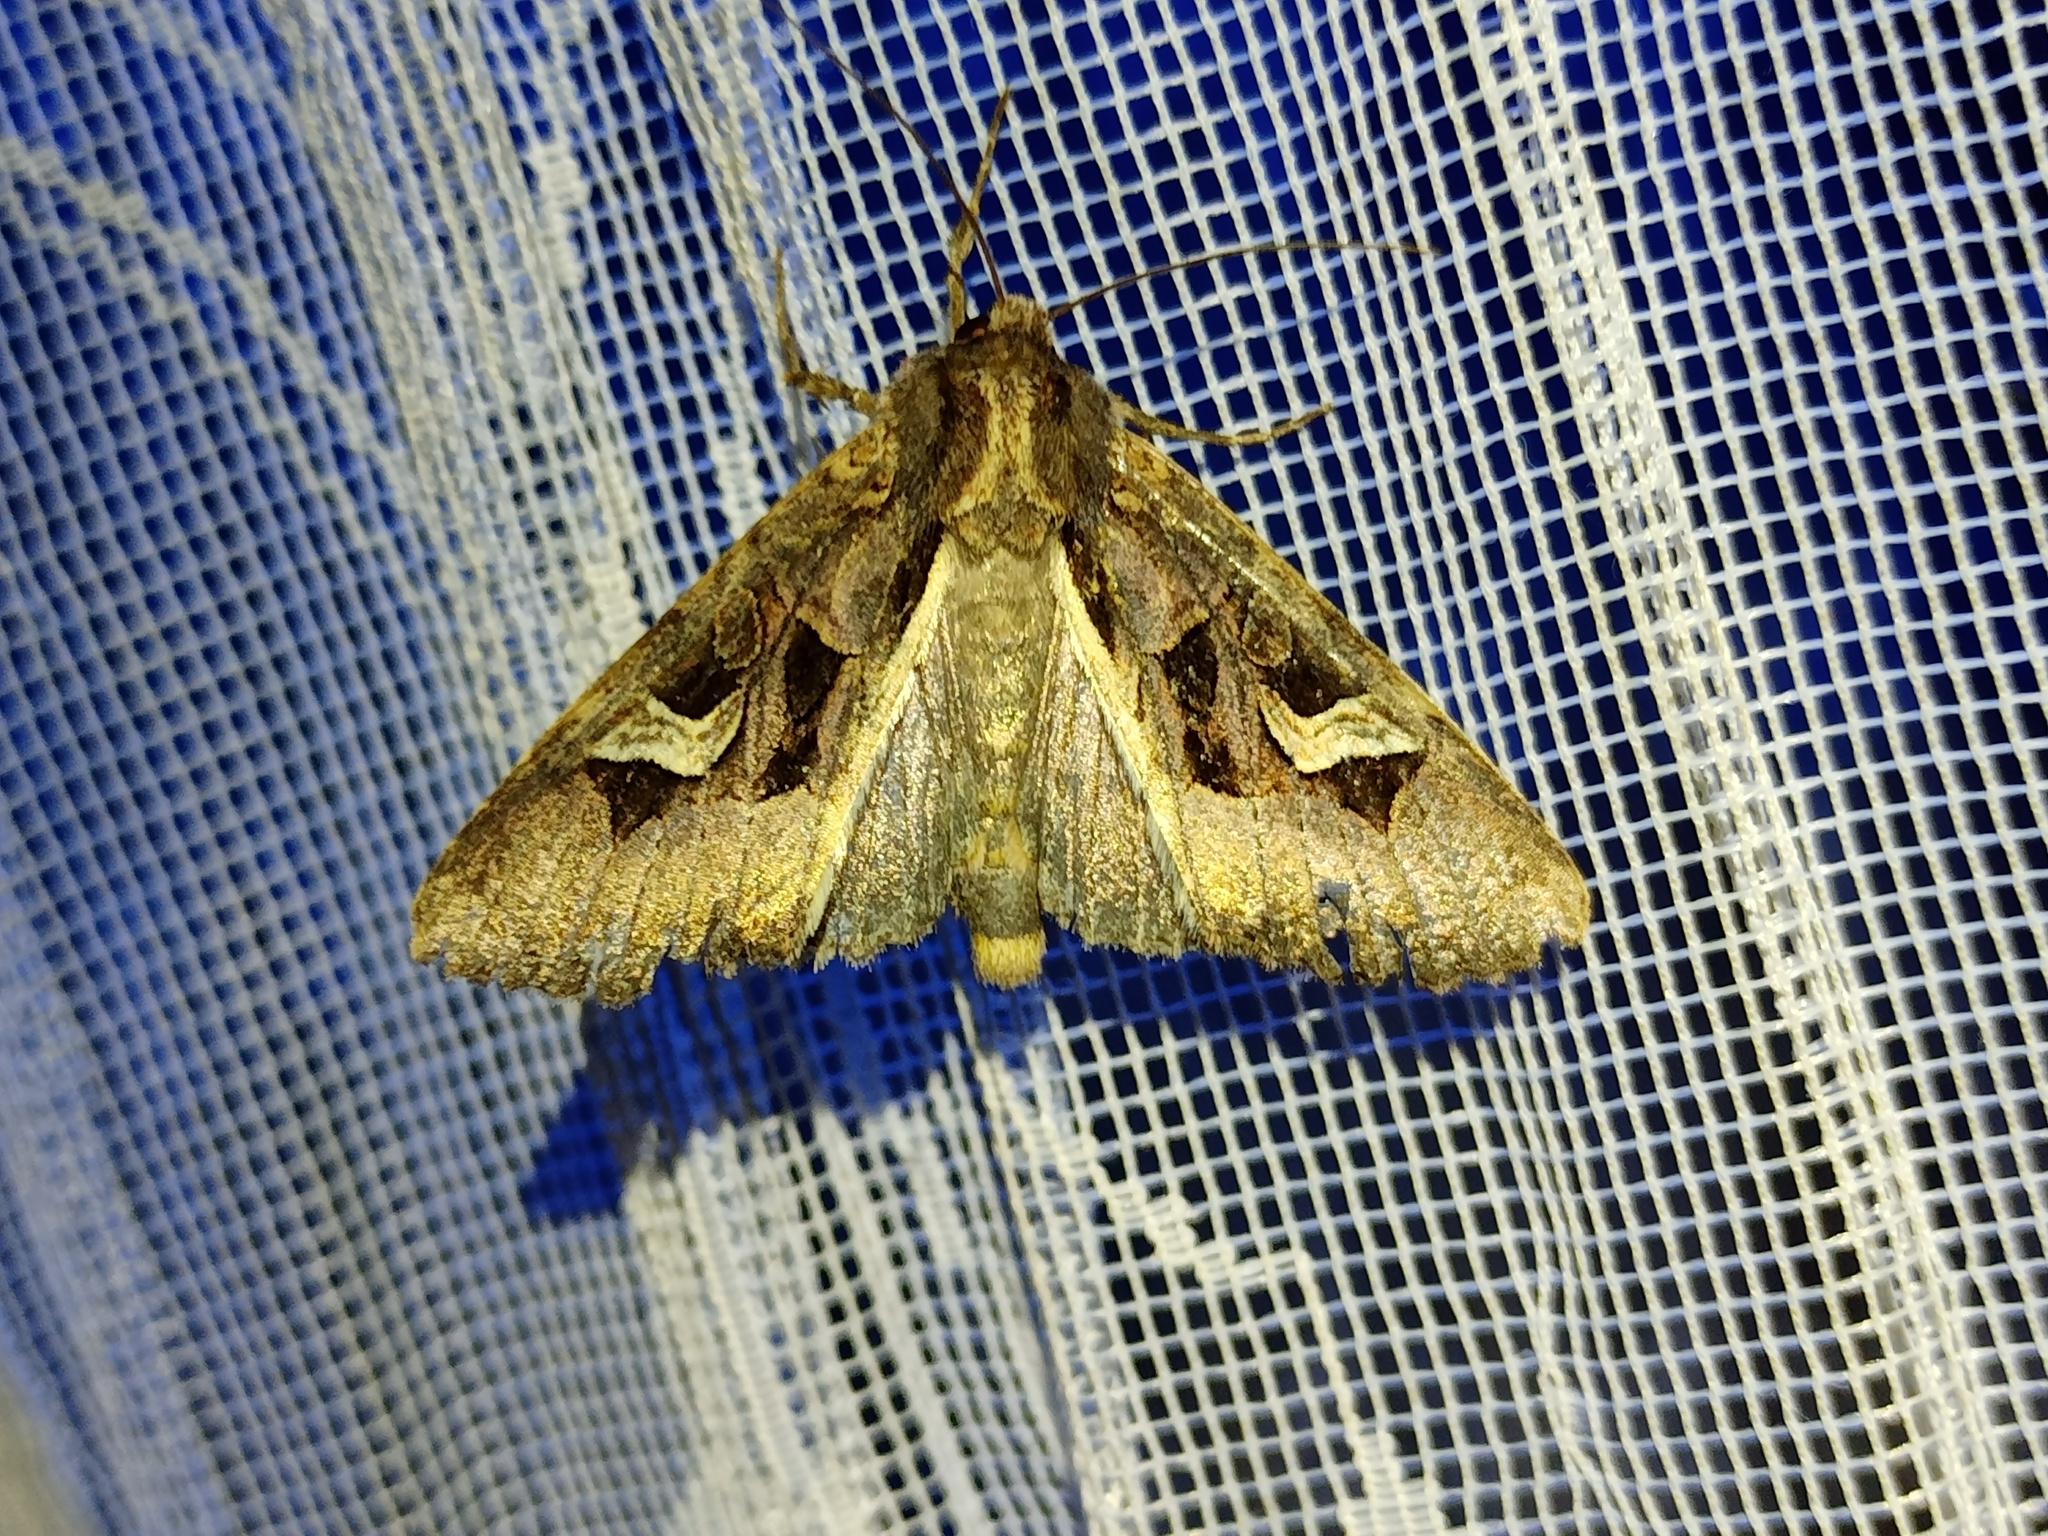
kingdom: Animalia
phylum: Arthropoda
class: Insecta
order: Lepidoptera
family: Noctuidae
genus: Trigonophora
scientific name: Trigonophora flammea
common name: Flame brocade
